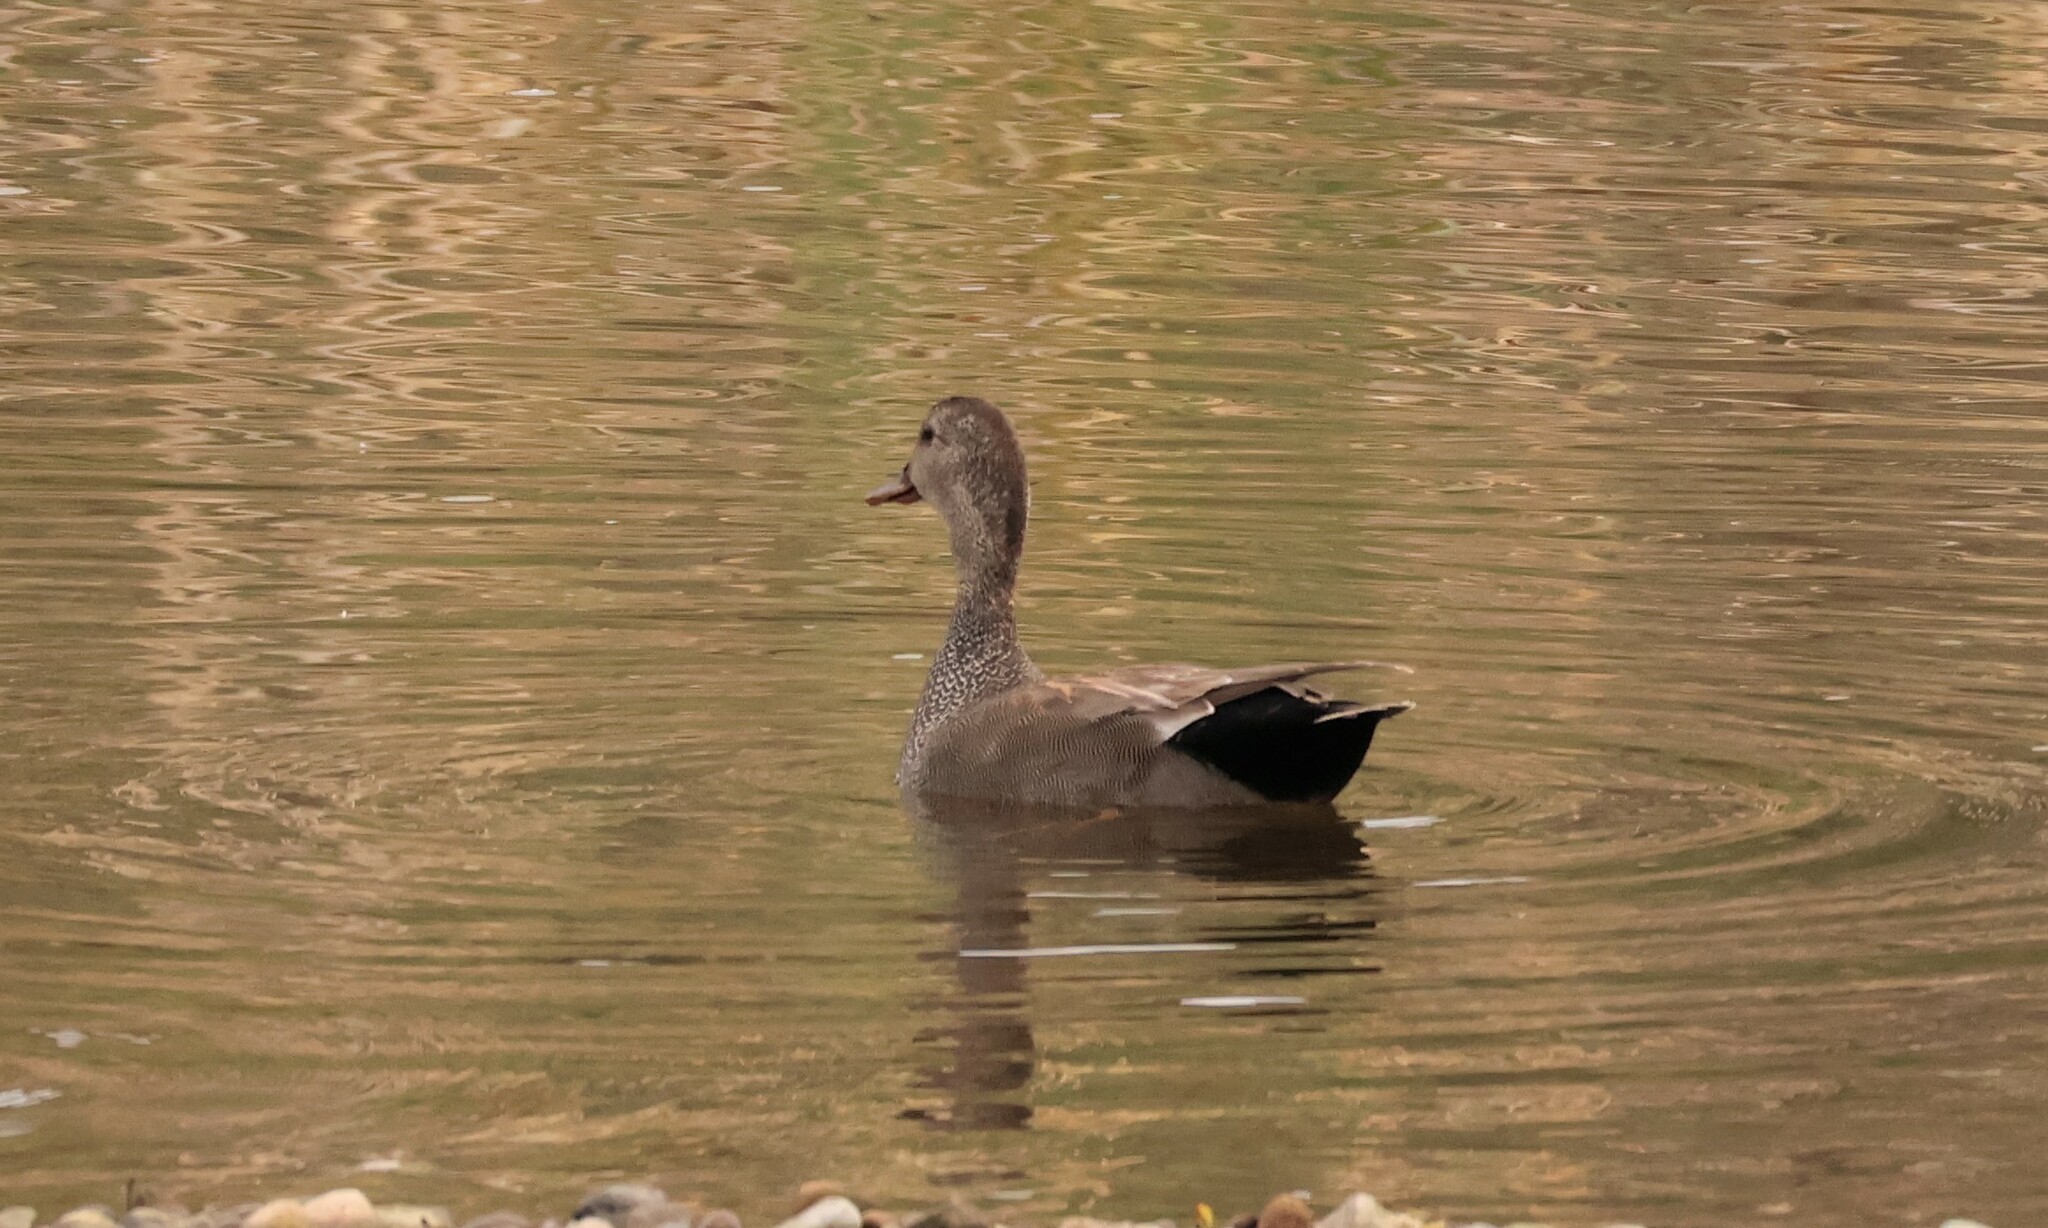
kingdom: Animalia
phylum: Chordata
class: Aves
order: Anseriformes
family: Anatidae
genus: Mareca
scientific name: Mareca strepera
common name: Gadwall
